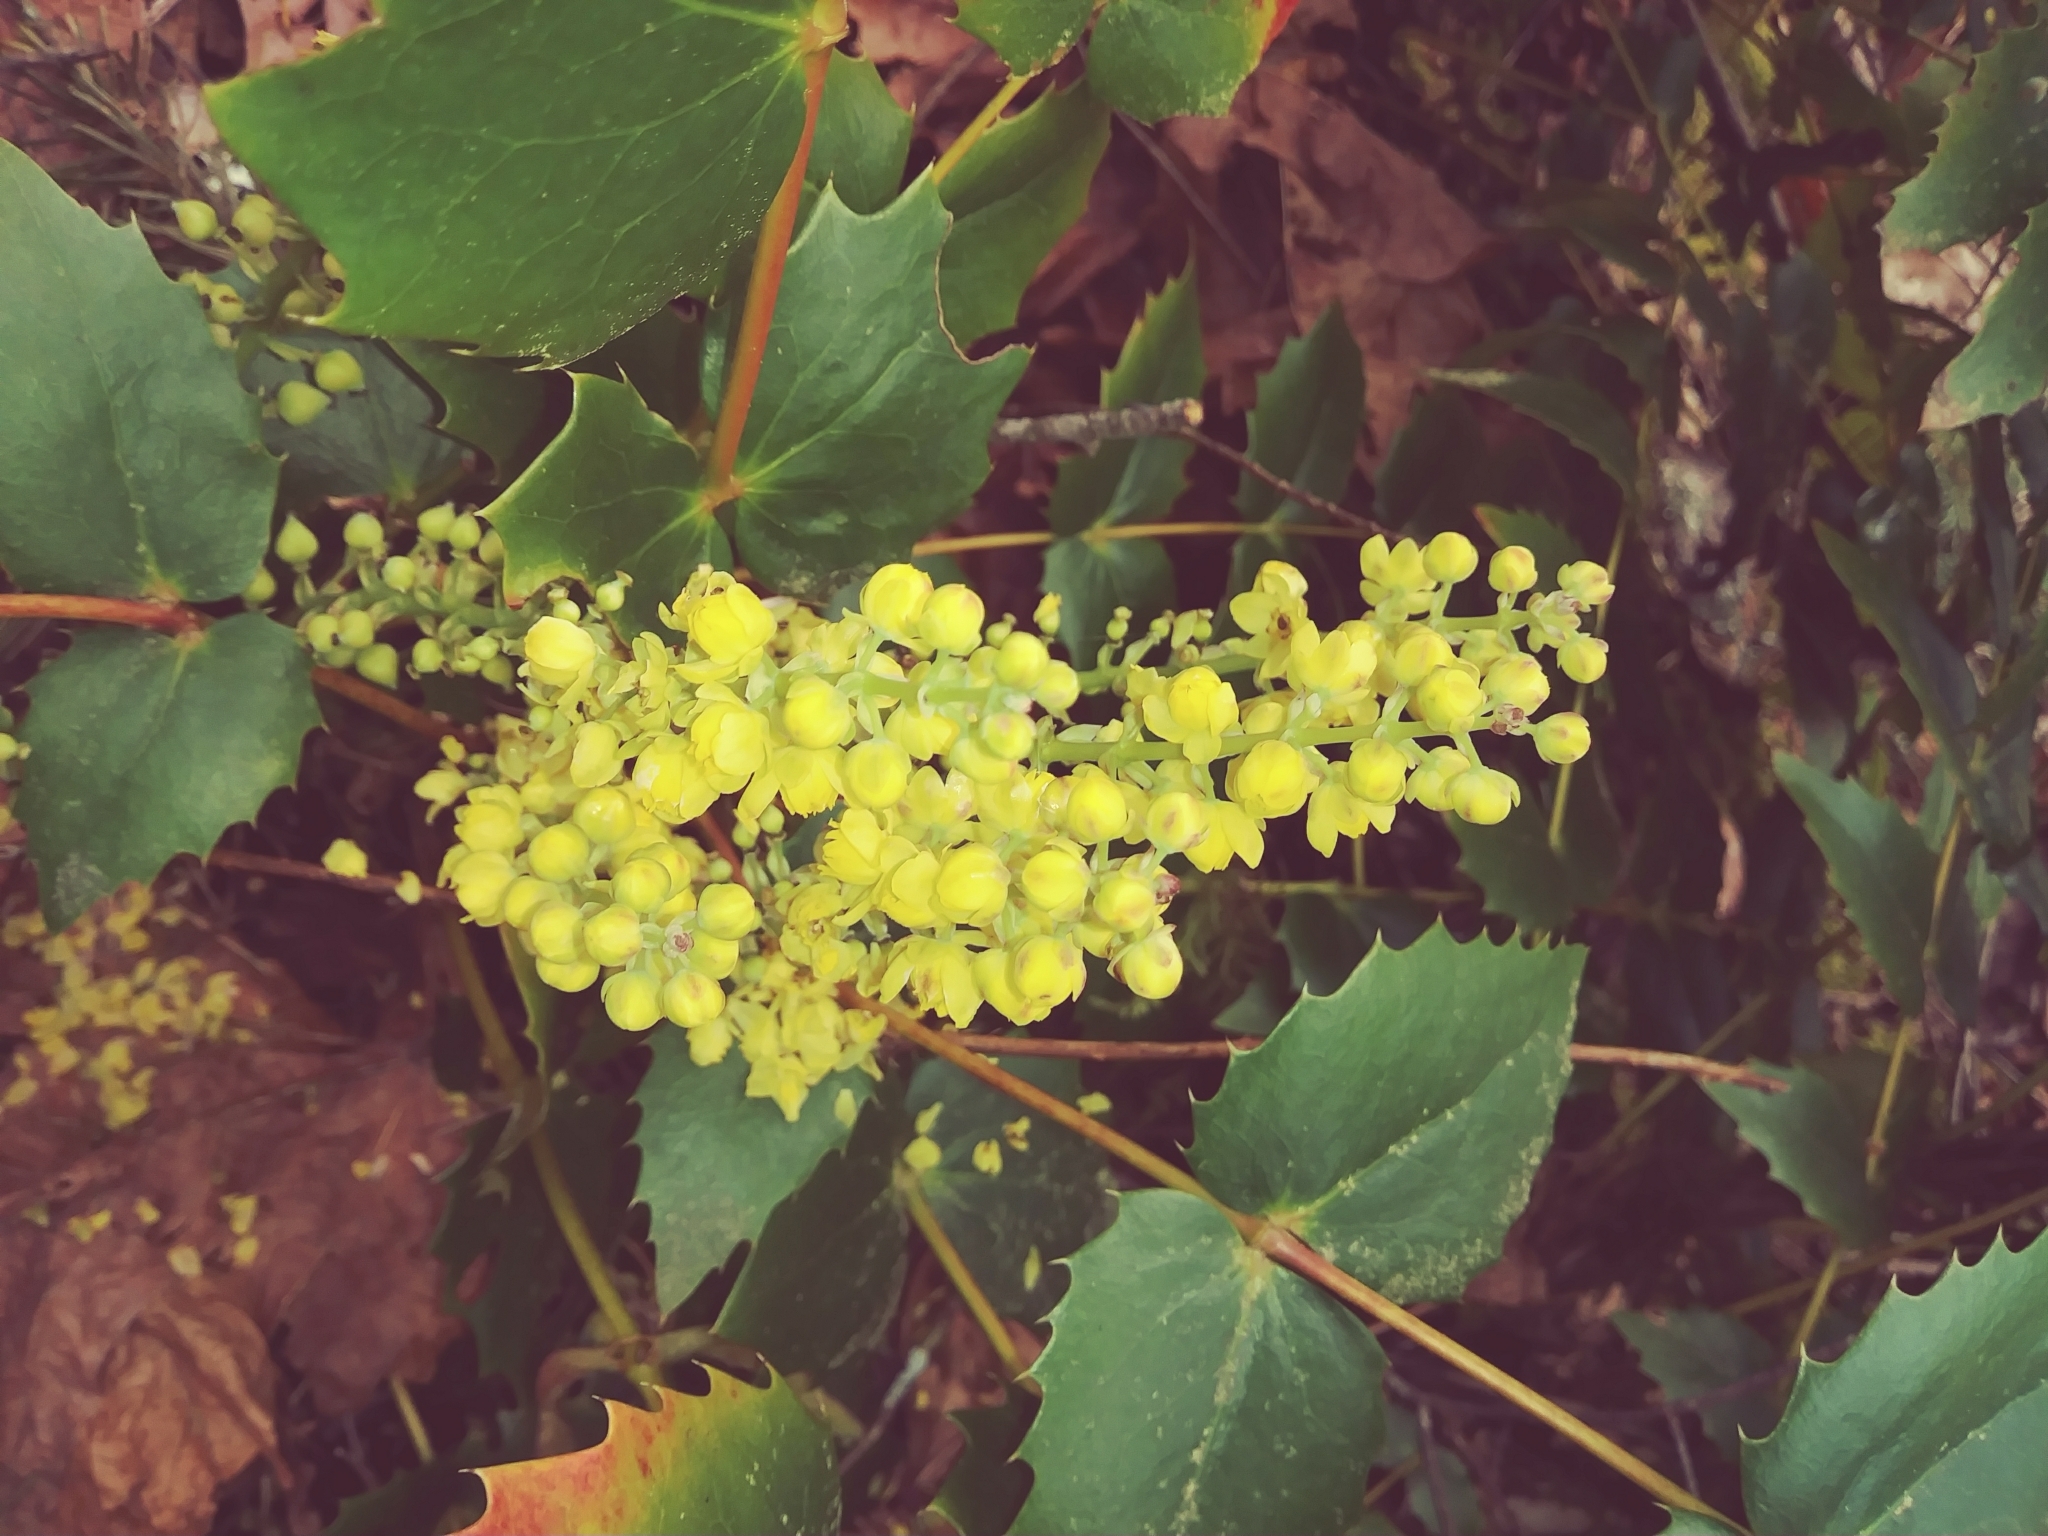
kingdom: Plantae
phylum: Tracheophyta
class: Magnoliopsida
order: Ranunculales
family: Berberidaceae
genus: Mahonia
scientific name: Mahonia nervosa
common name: Cascade oregon-grape
